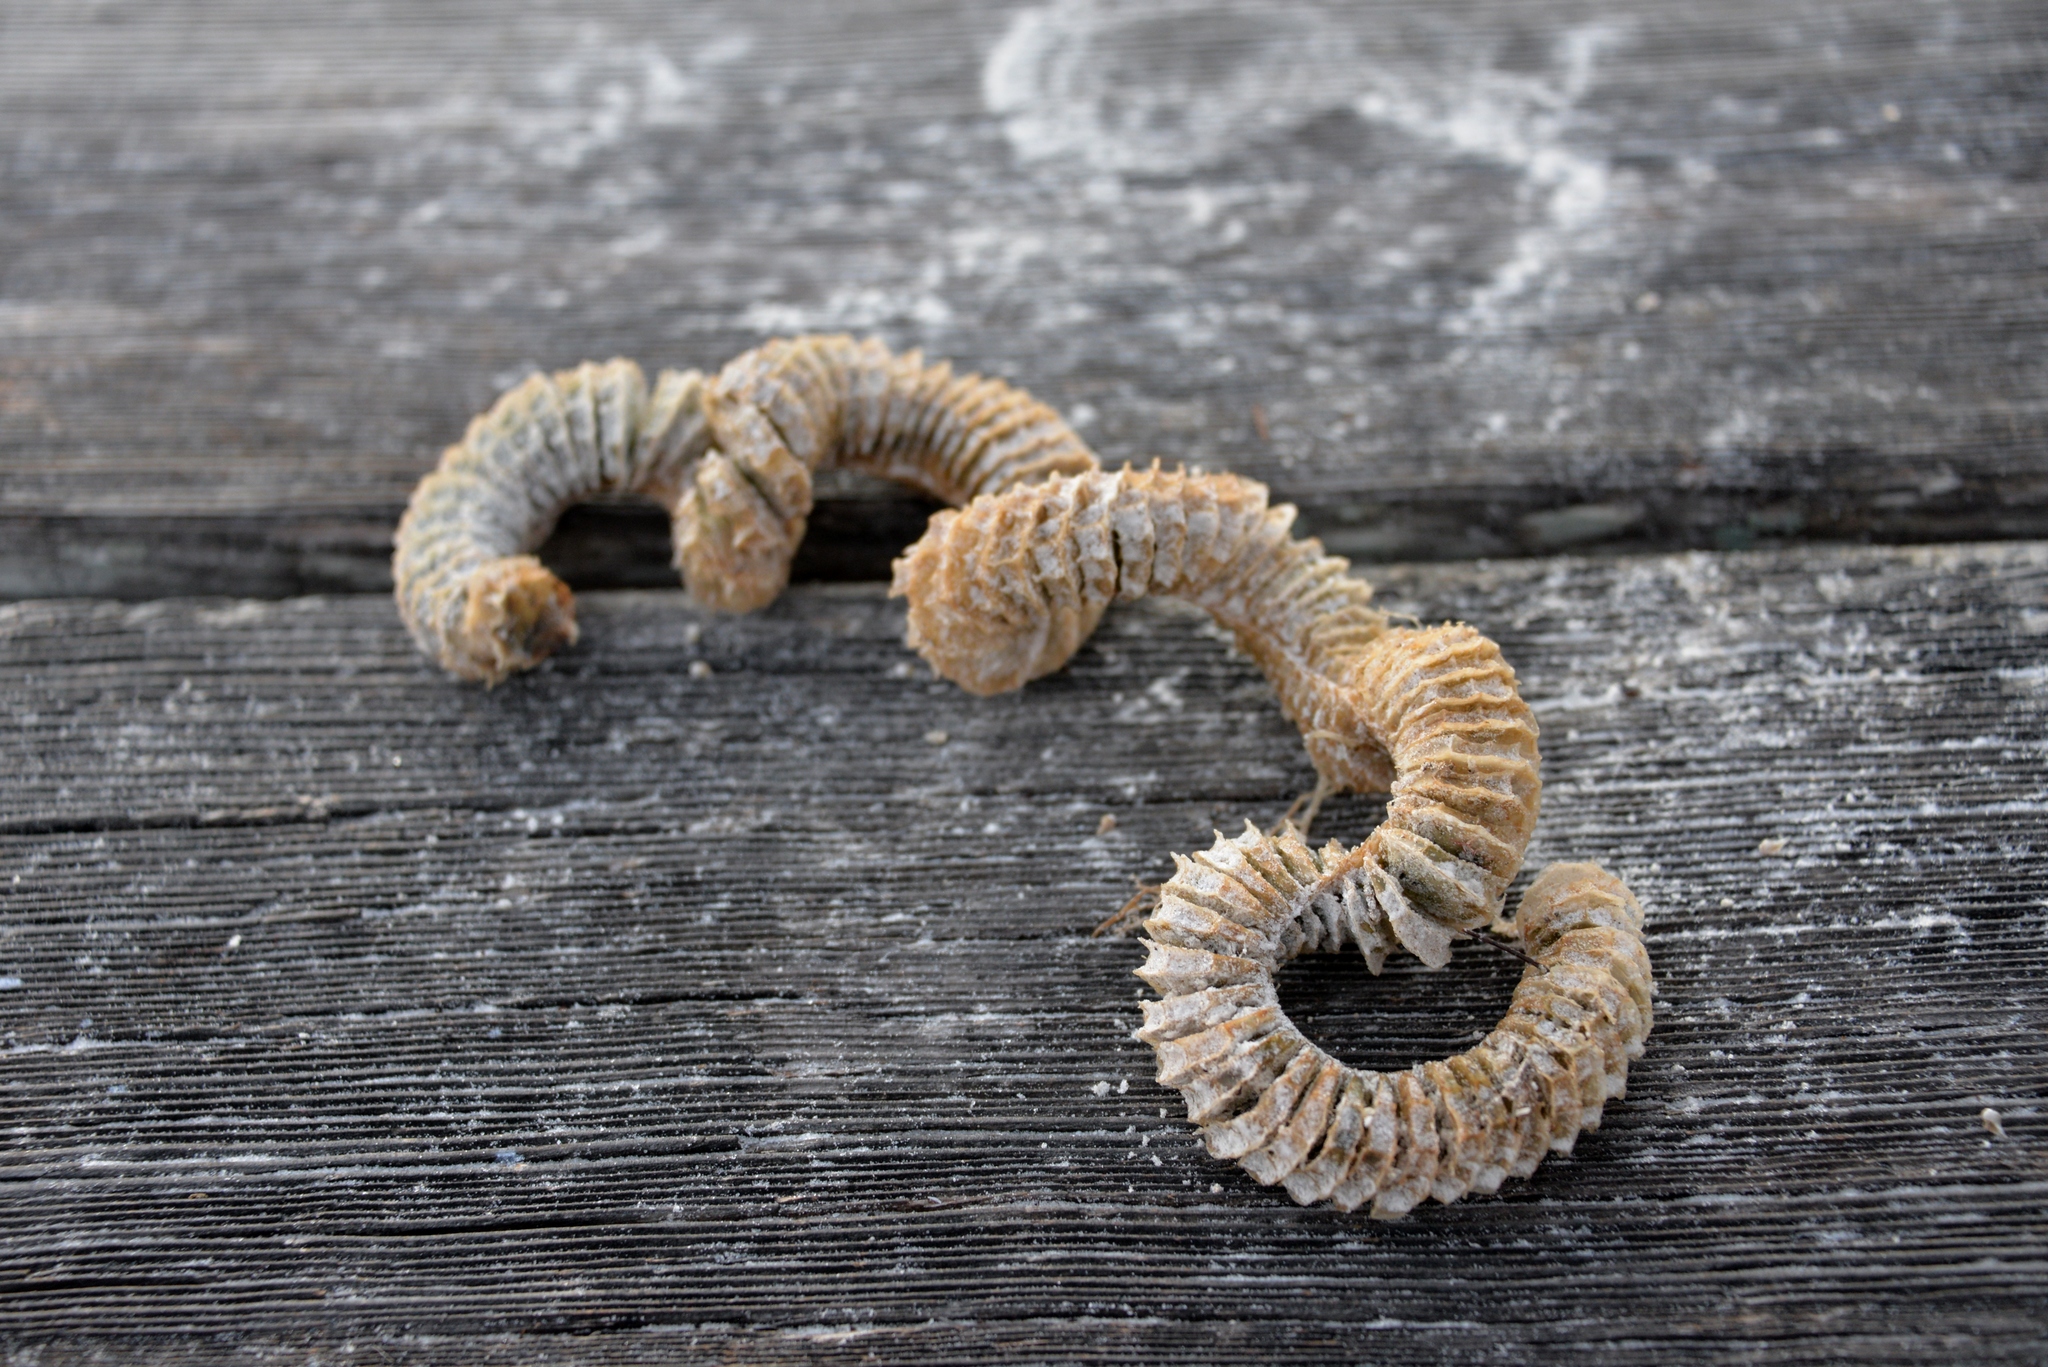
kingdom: Animalia
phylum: Mollusca
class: Gastropoda
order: Neogastropoda
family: Busyconidae
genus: Sinistrofulgur
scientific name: Sinistrofulgur sinistrum
